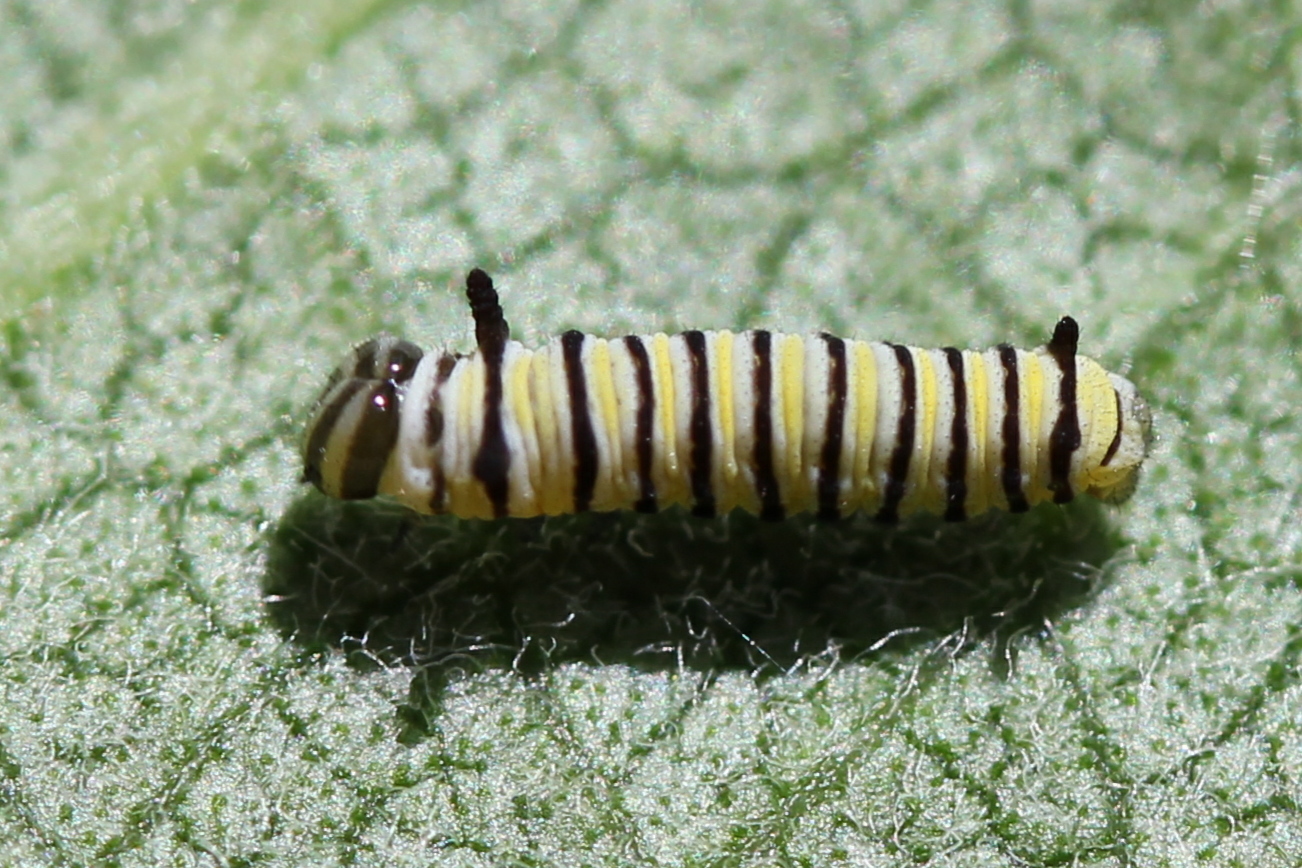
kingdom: Animalia
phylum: Arthropoda
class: Insecta
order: Lepidoptera
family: Nymphalidae
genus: Danaus
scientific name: Danaus plexippus
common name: Monarch
